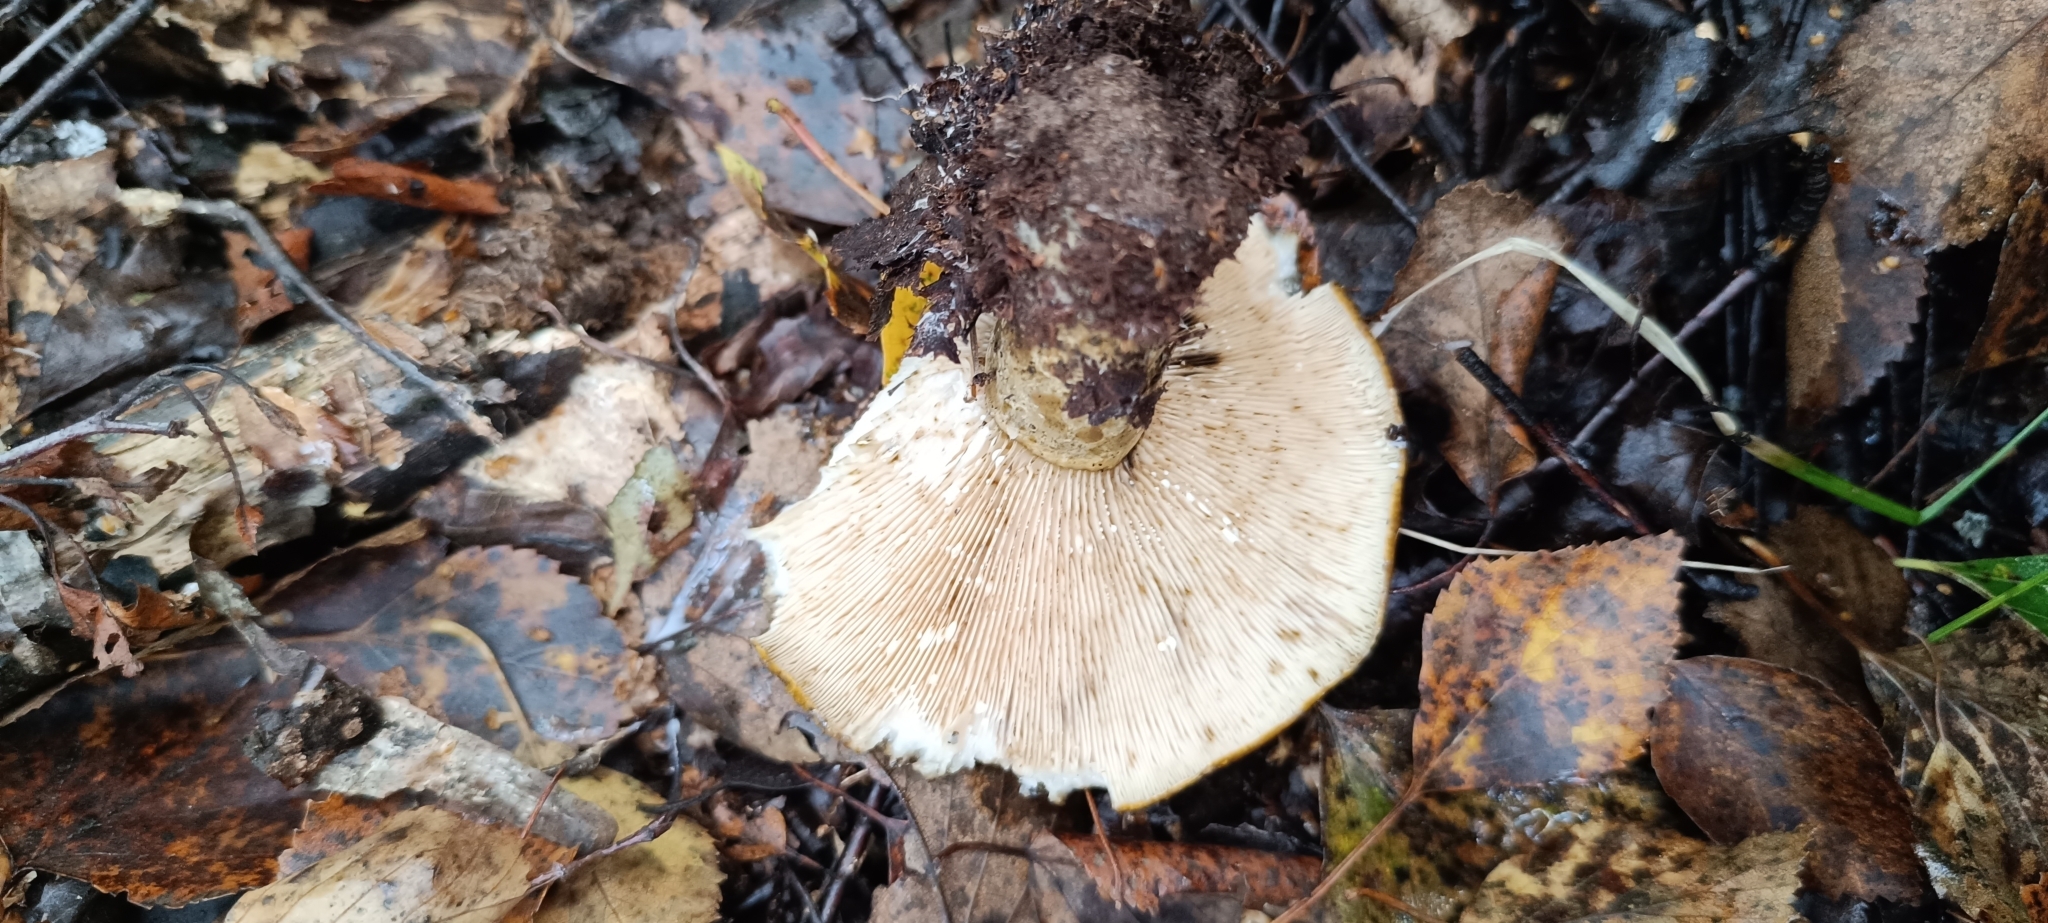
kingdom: Fungi
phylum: Basidiomycota
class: Agaricomycetes
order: Russulales
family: Russulaceae
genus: Lactarius
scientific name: Lactarius turpis
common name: Ugly milk-cap
